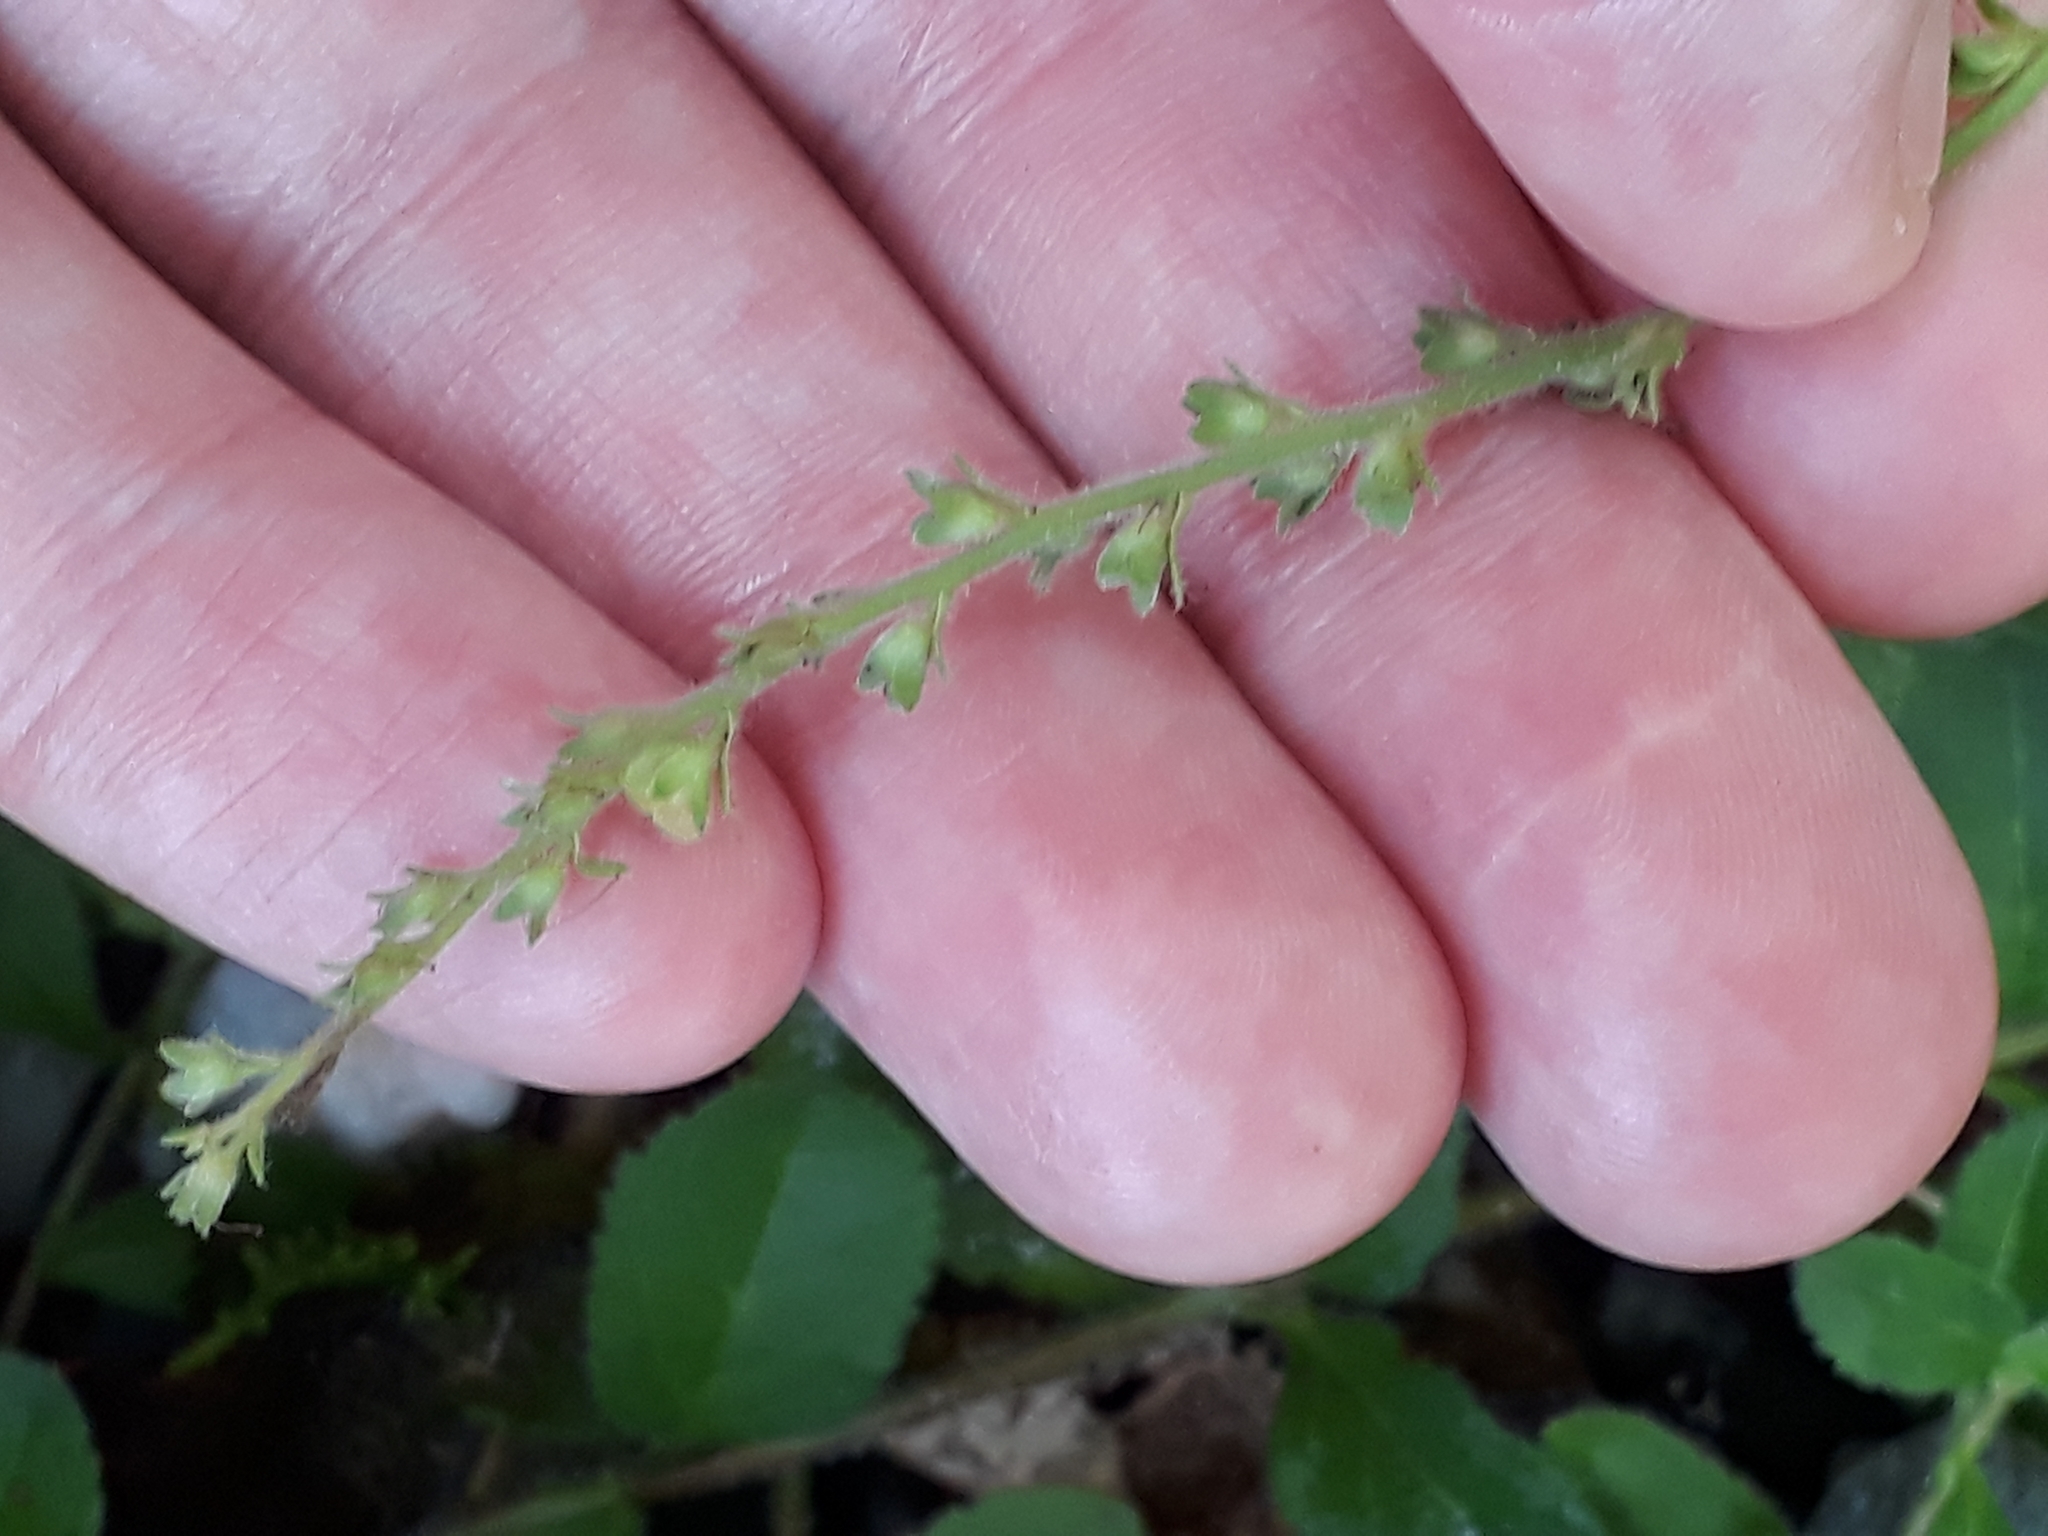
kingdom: Plantae
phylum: Tracheophyta
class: Magnoliopsida
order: Lamiales
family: Plantaginaceae
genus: Veronica
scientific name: Veronica officinalis
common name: Common speedwell
